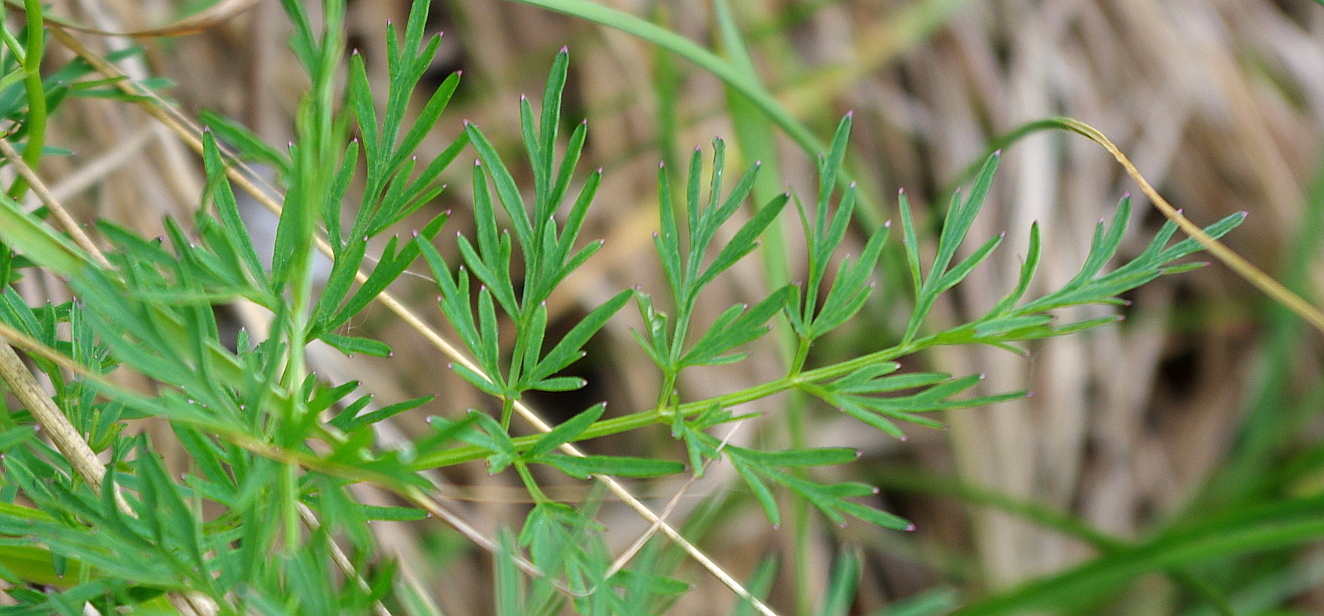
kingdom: Plantae
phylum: Tracheophyta
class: Magnoliopsida
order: Apiales
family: Apiaceae
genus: Kadenia
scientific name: Kadenia dubia
